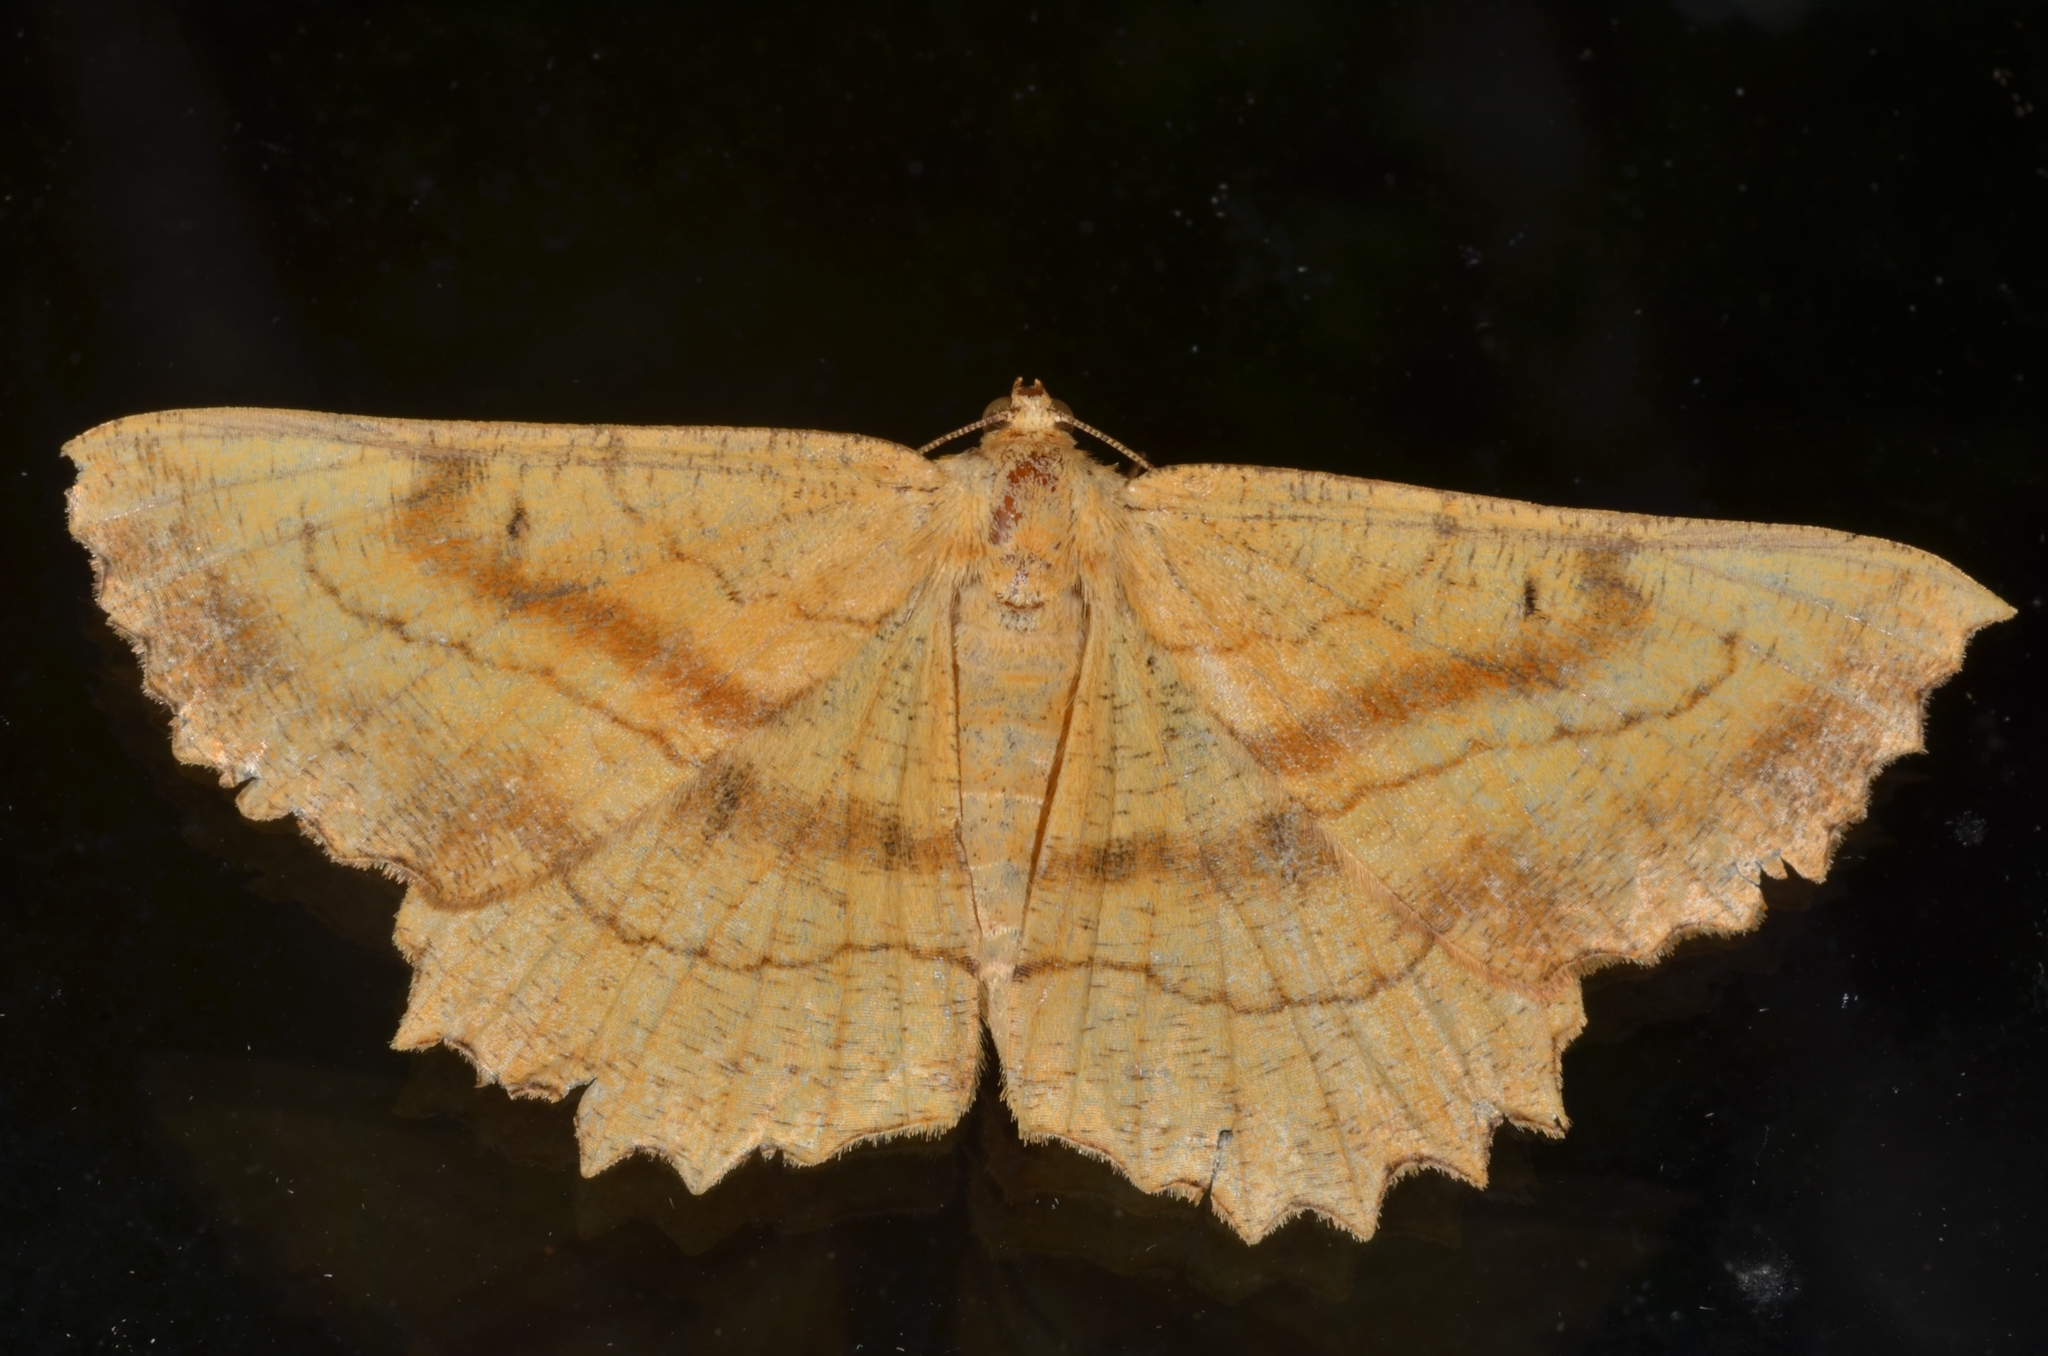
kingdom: Animalia
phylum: Arthropoda
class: Insecta
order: Lepidoptera
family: Geometridae
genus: Ctenognophos
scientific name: Ctenognophos grandinaria
